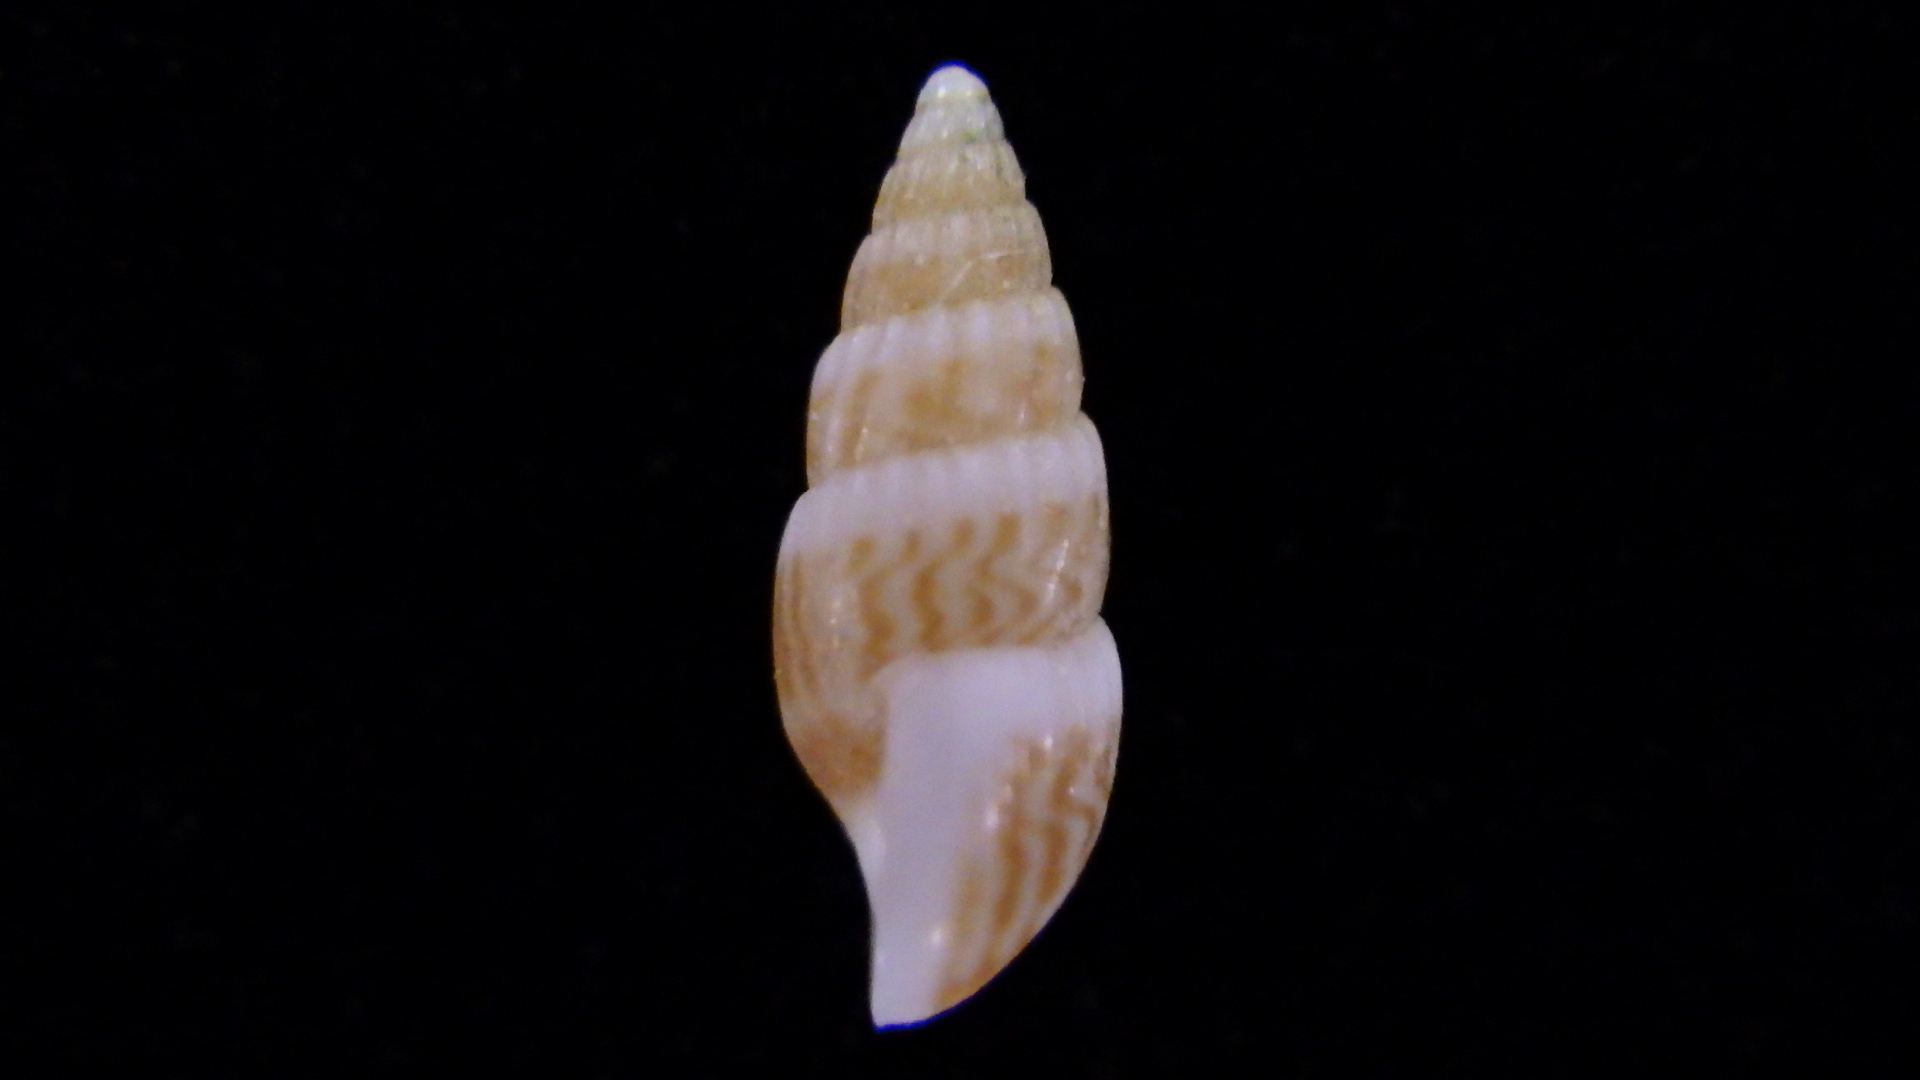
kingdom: Animalia
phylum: Mollusca
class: Gastropoda
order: Littorinimorpha
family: Rissoinidae
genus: Rissoina
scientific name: Rissoina chathamensis
